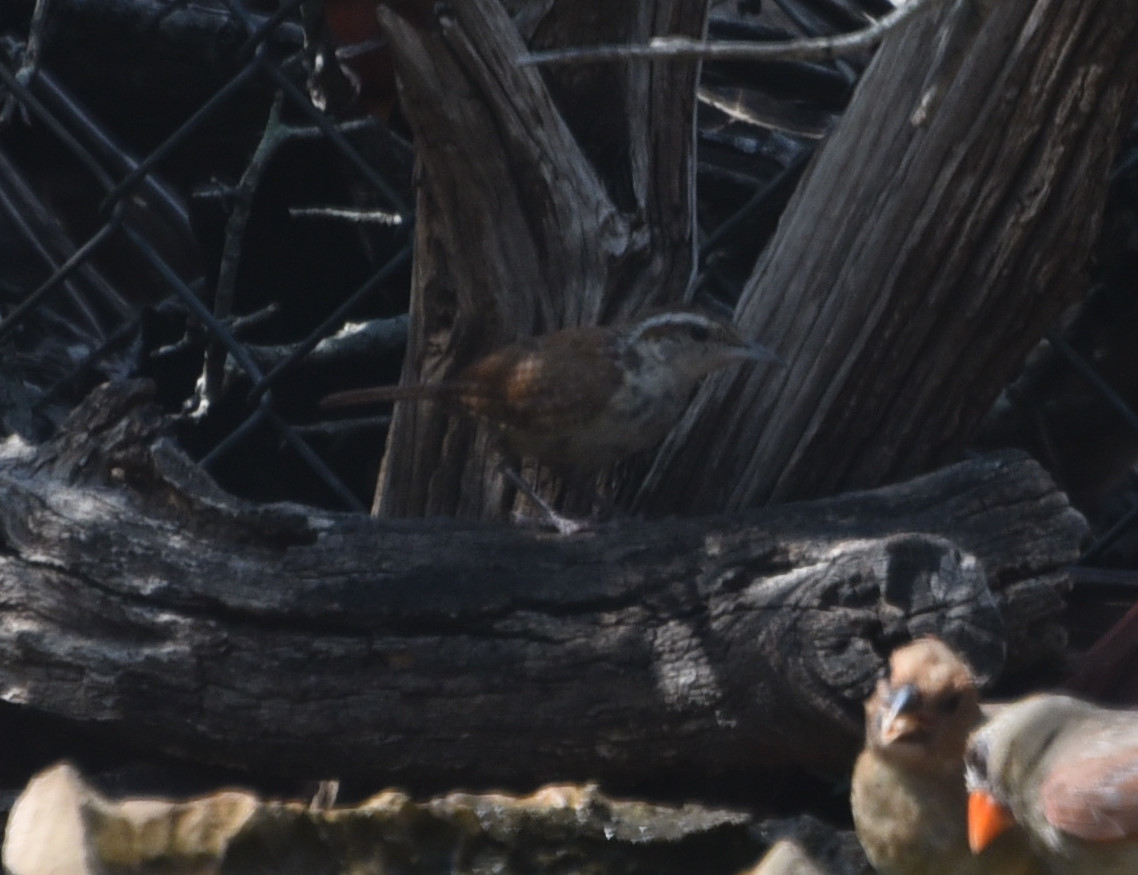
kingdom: Animalia
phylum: Chordata
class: Aves
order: Passeriformes
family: Troglodytidae
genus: Thryothorus
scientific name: Thryothorus ludovicianus
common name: Carolina wren
